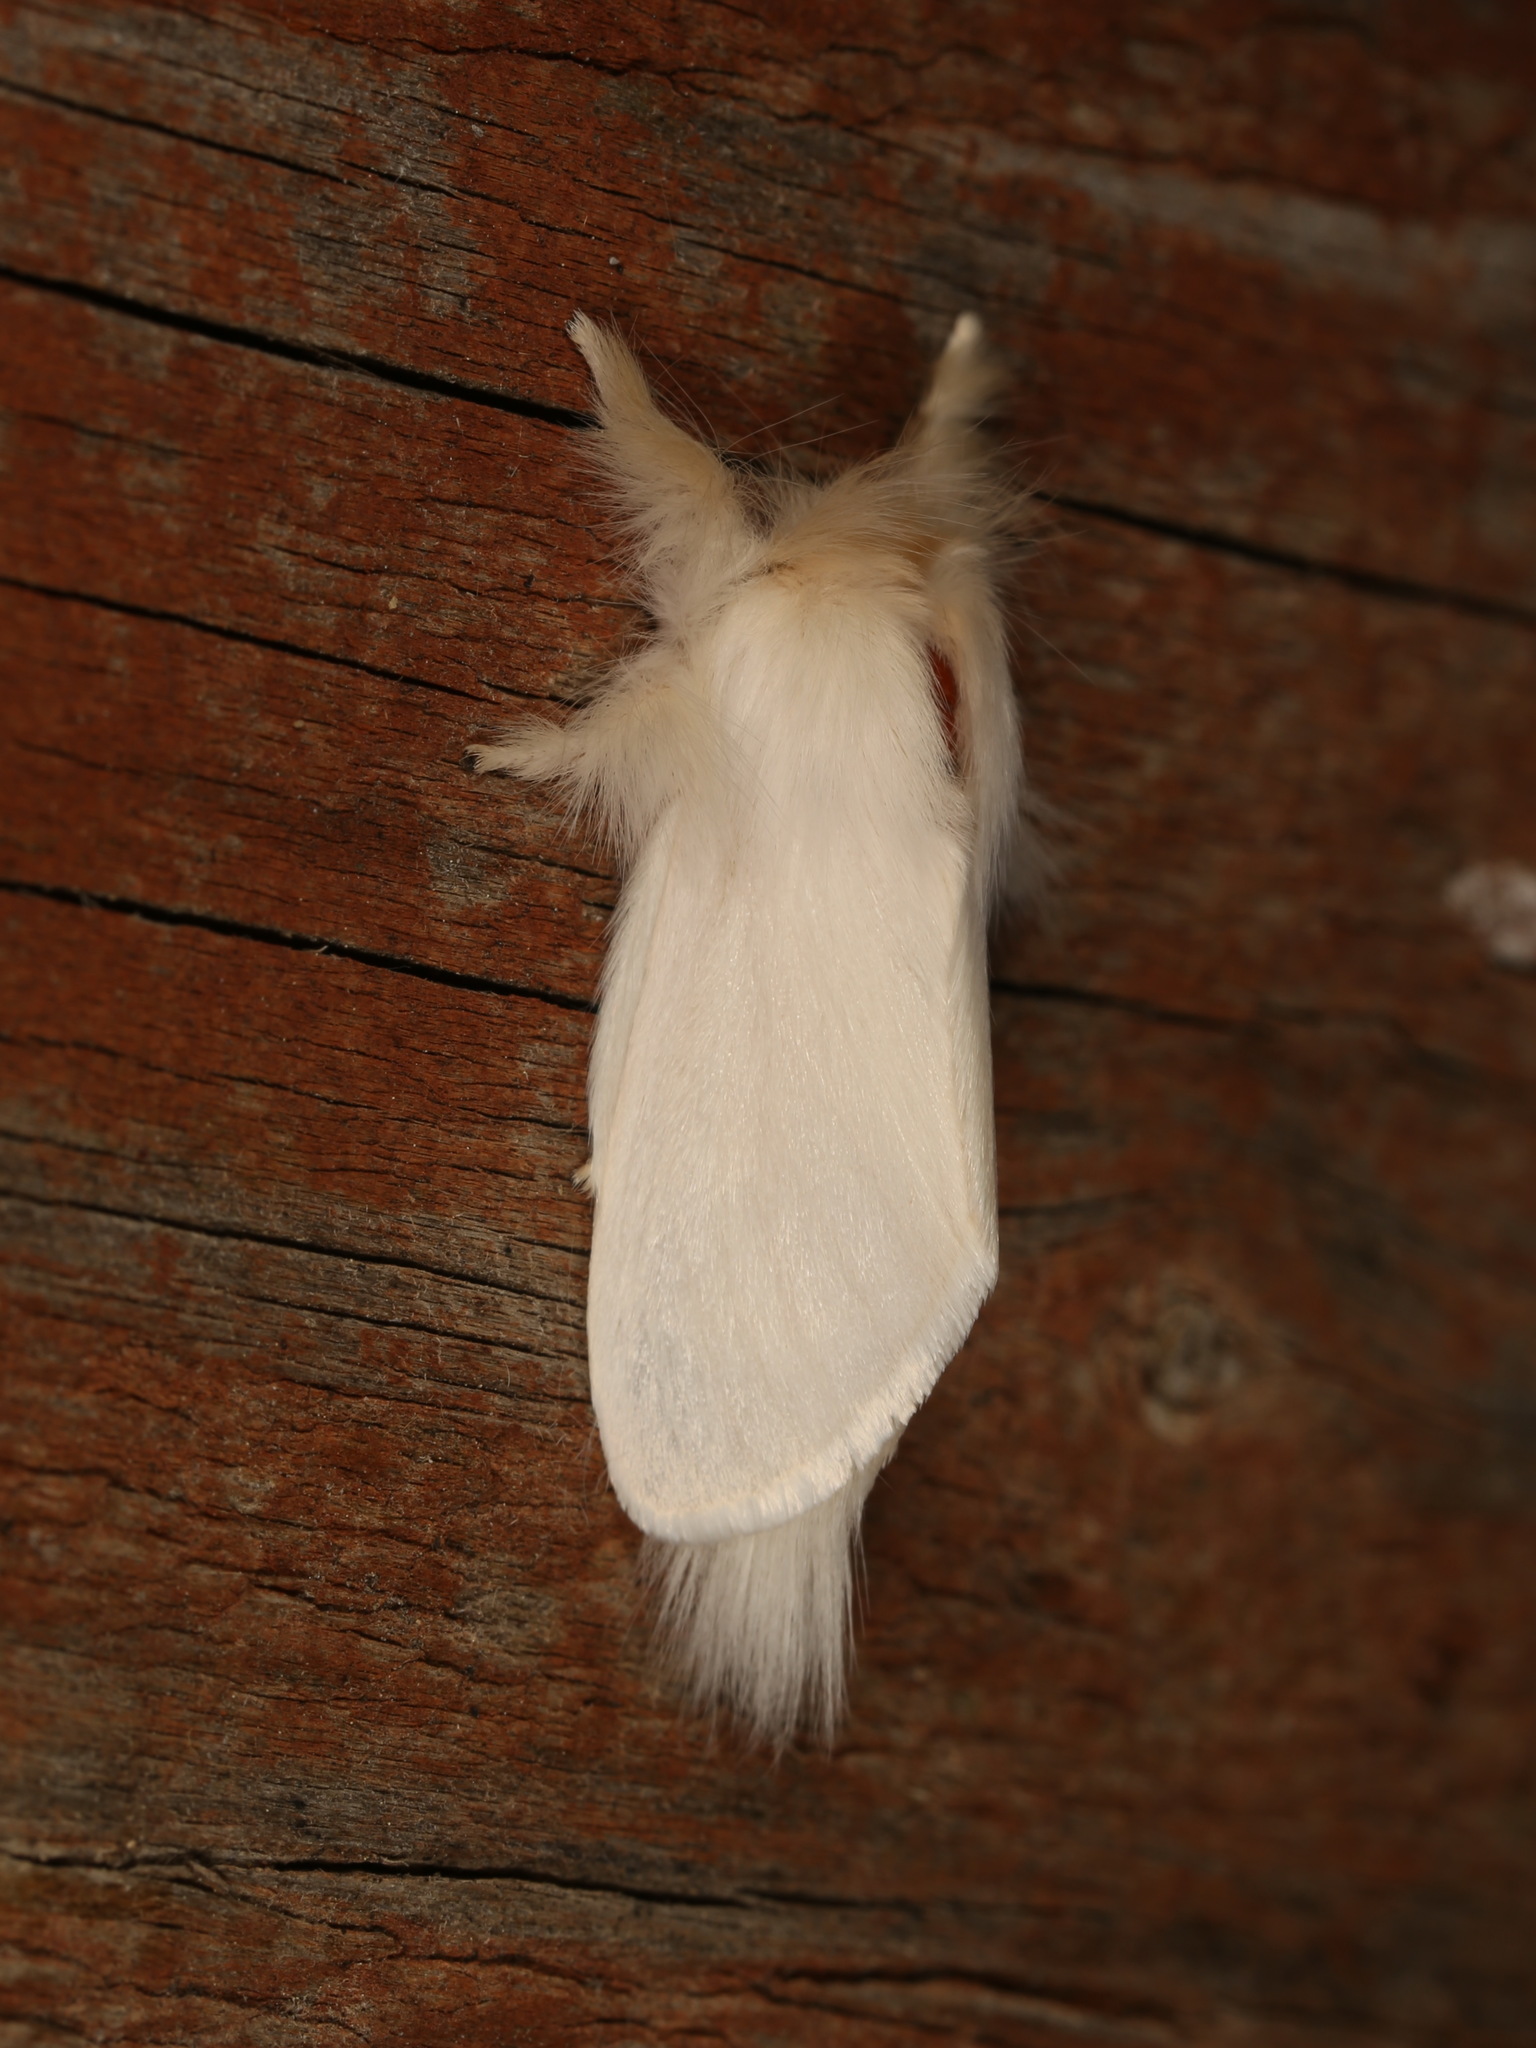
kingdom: Animalia
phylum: Arthropoda
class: Insecta
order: Lepidoptera
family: Notodontidae
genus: Trichiocercus
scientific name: Trichiocercus sparshalli
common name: Long-tailed satin
